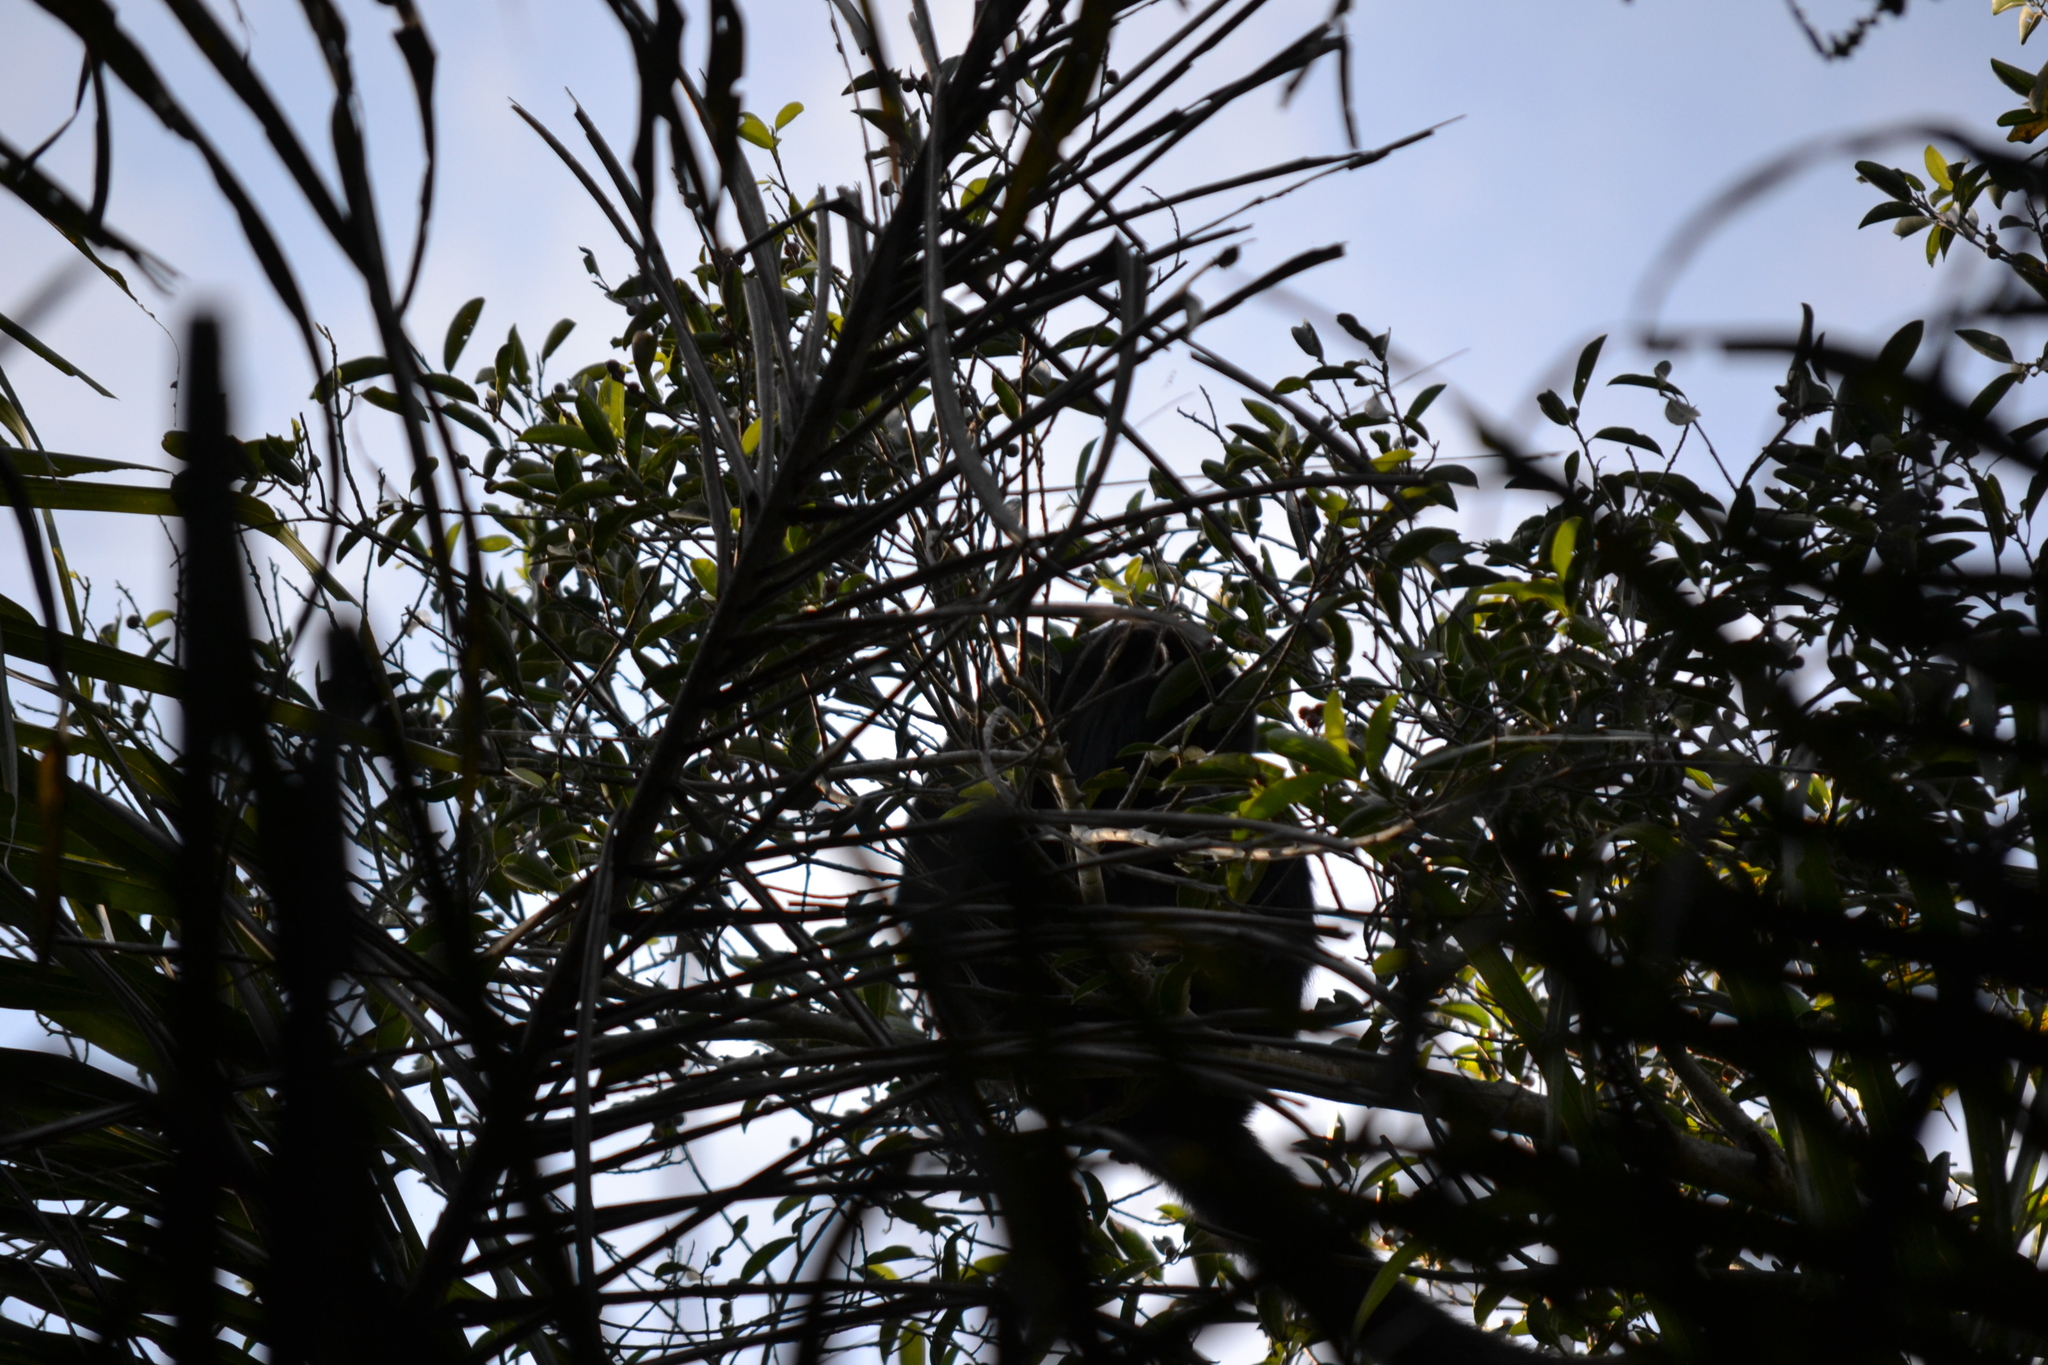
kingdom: Animalia
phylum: Chordata
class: Mammalia
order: Primates
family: Atelidae
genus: Alouatta
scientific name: Alouatta caraya
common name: Black howler
